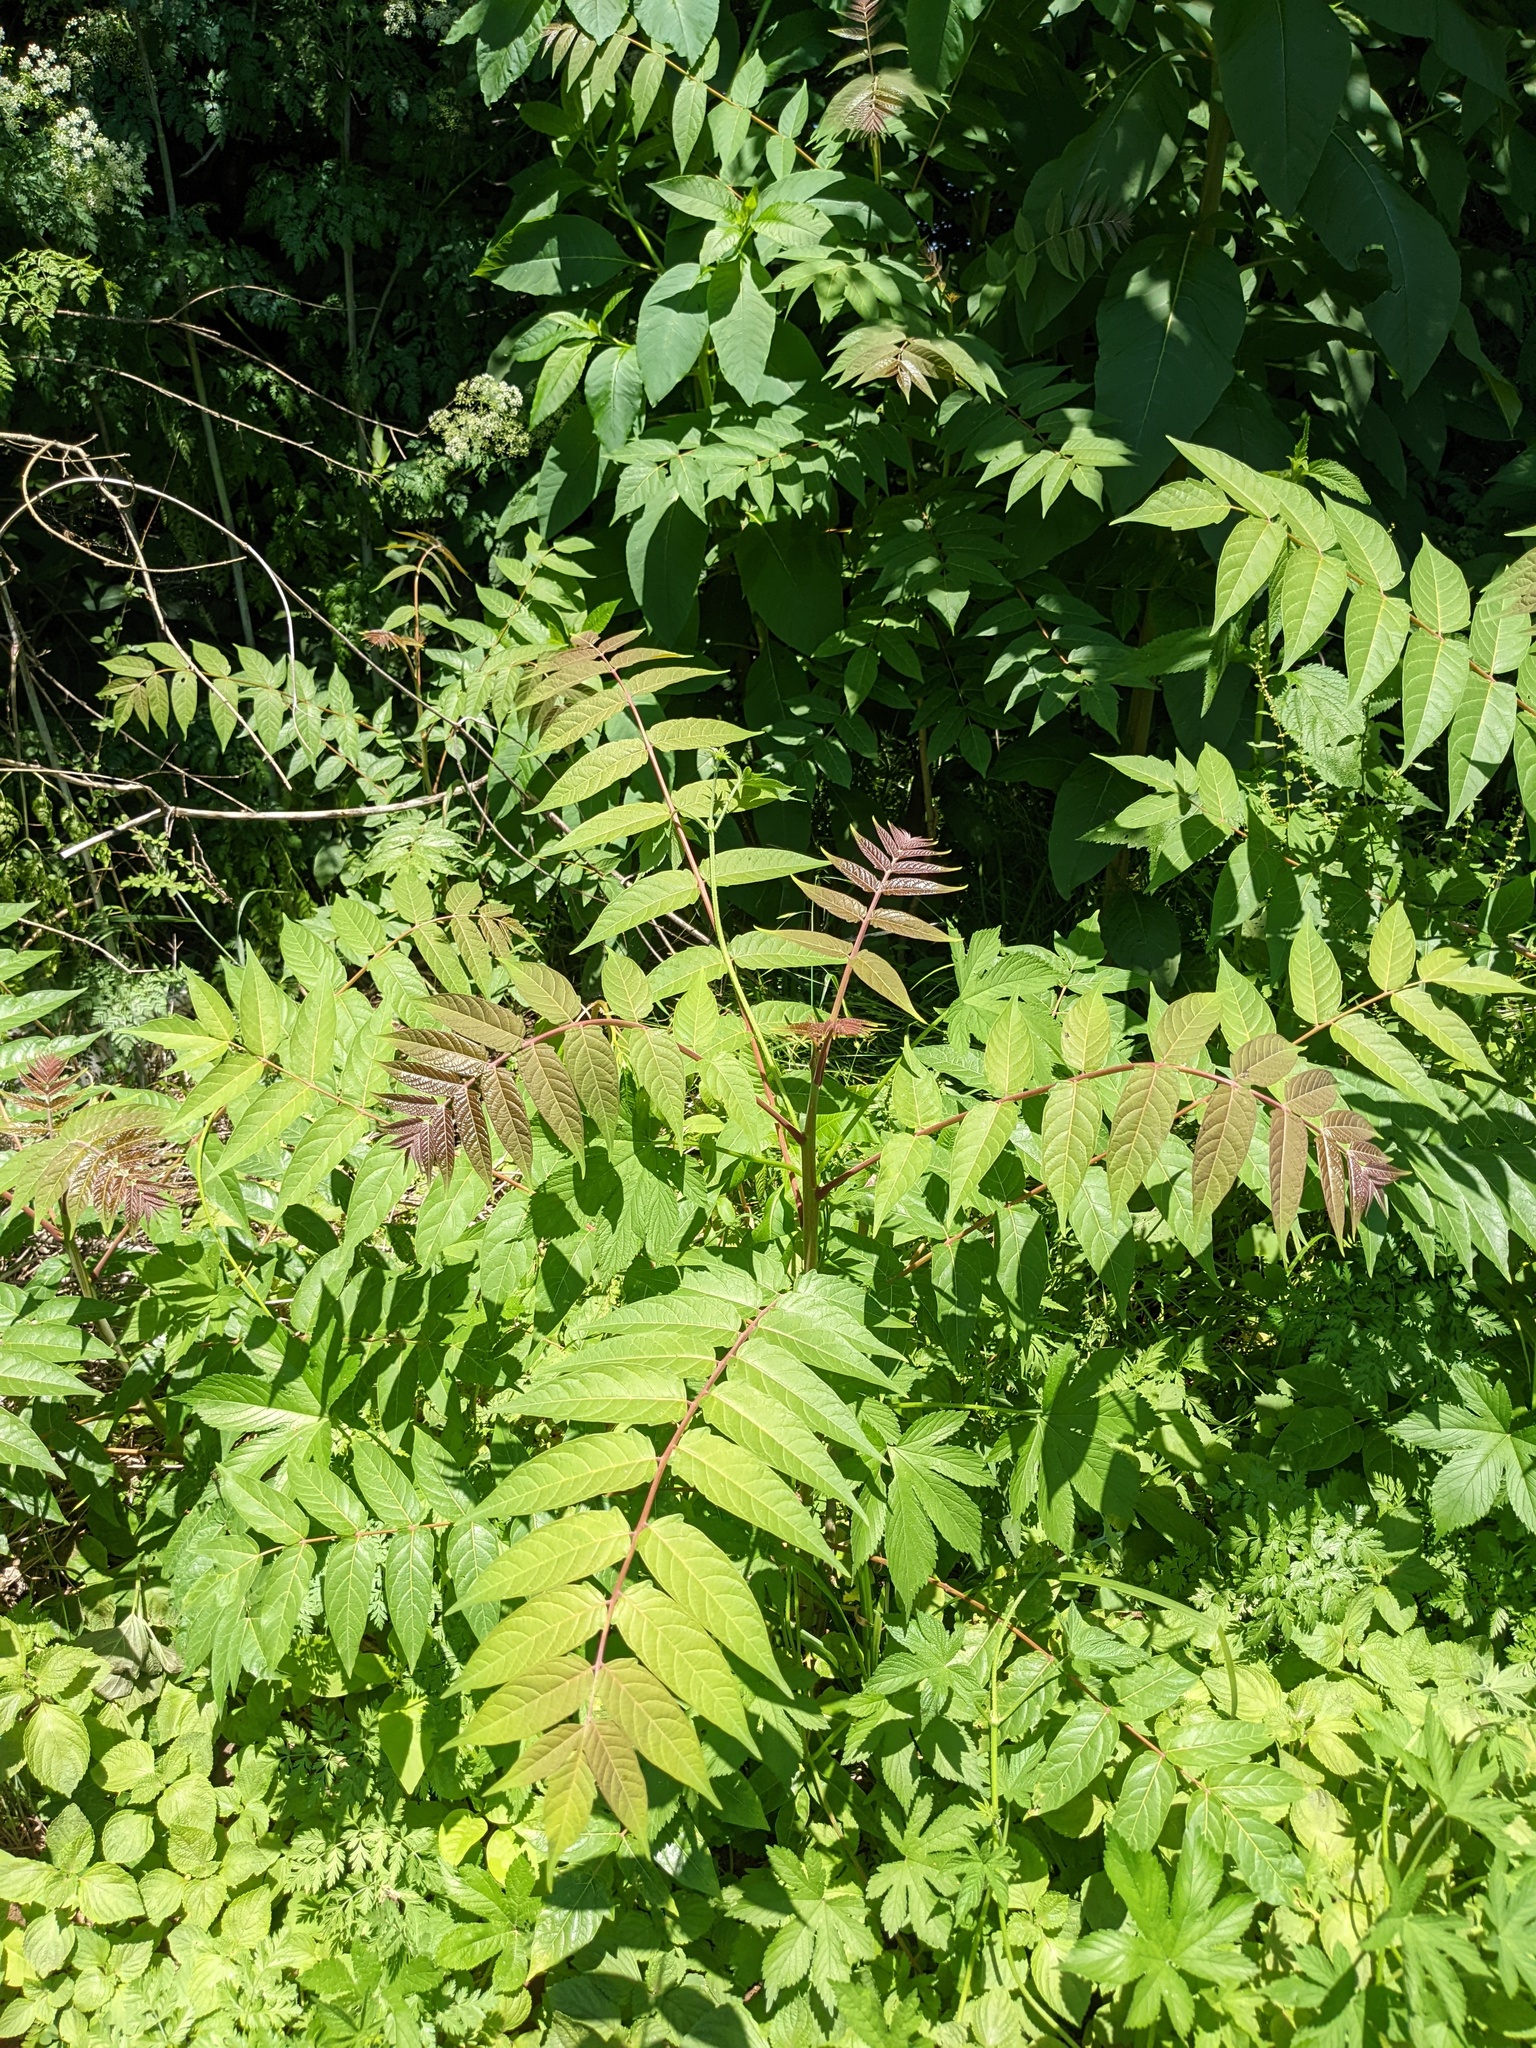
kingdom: Plantae
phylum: Tracheophyta
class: Magnoliopsida
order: Sapindales
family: Simaroubaceae
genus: Ailanthus
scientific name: Ailanthus altissima
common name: Tree-of-heaven
